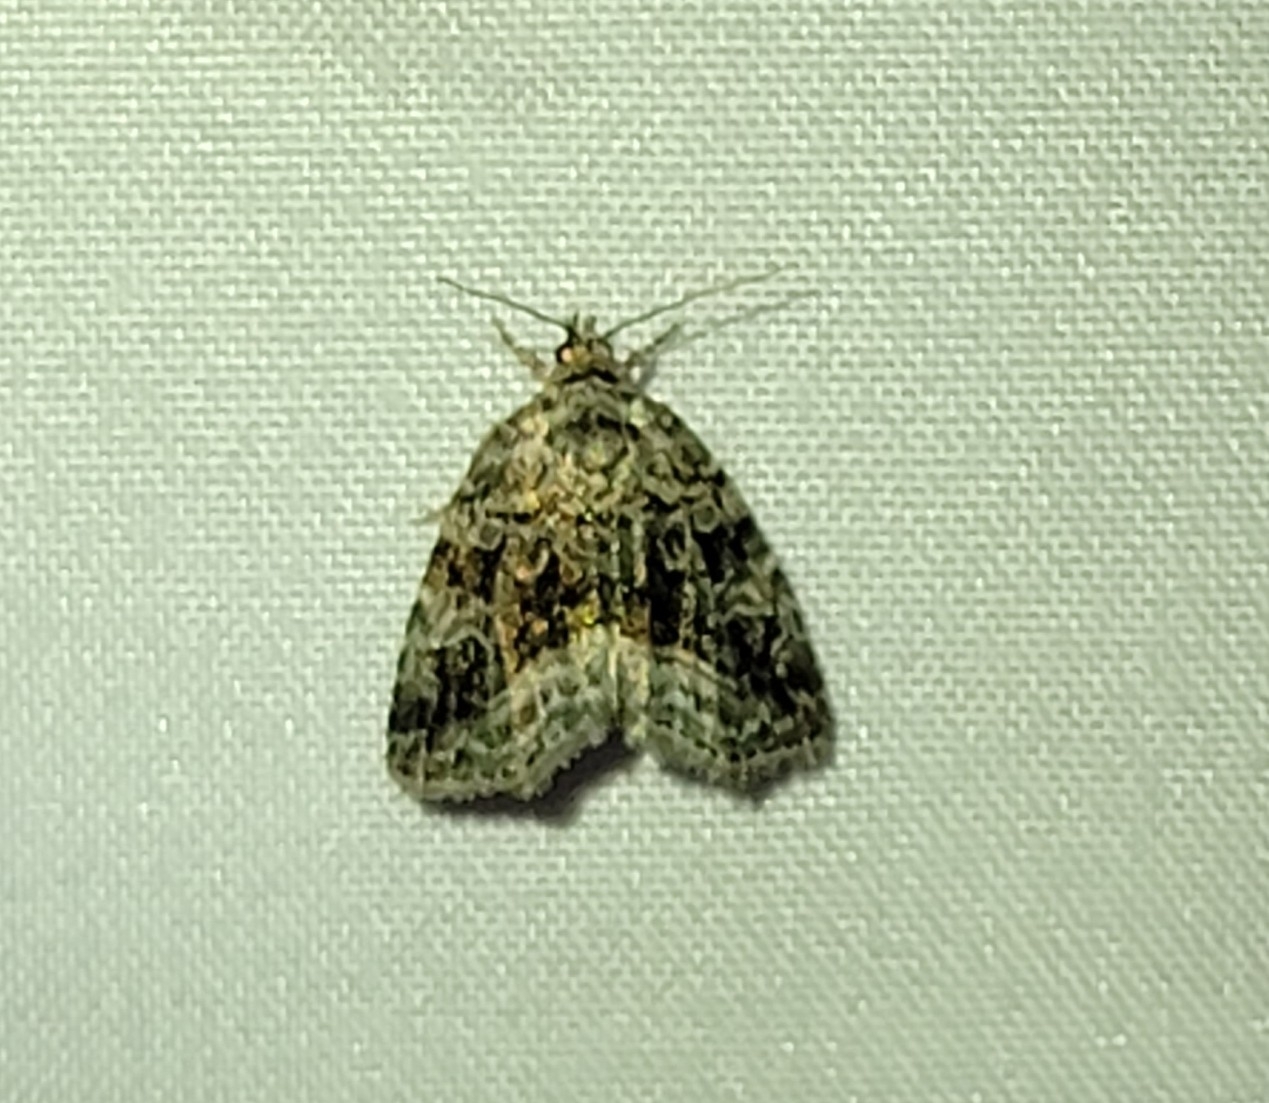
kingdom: Animalia
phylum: Arthropoda
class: Insecta
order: Lepidoptera
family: Noctuidae
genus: Protodeltote
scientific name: Protodeltote muscosula
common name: Large mossy glyph
